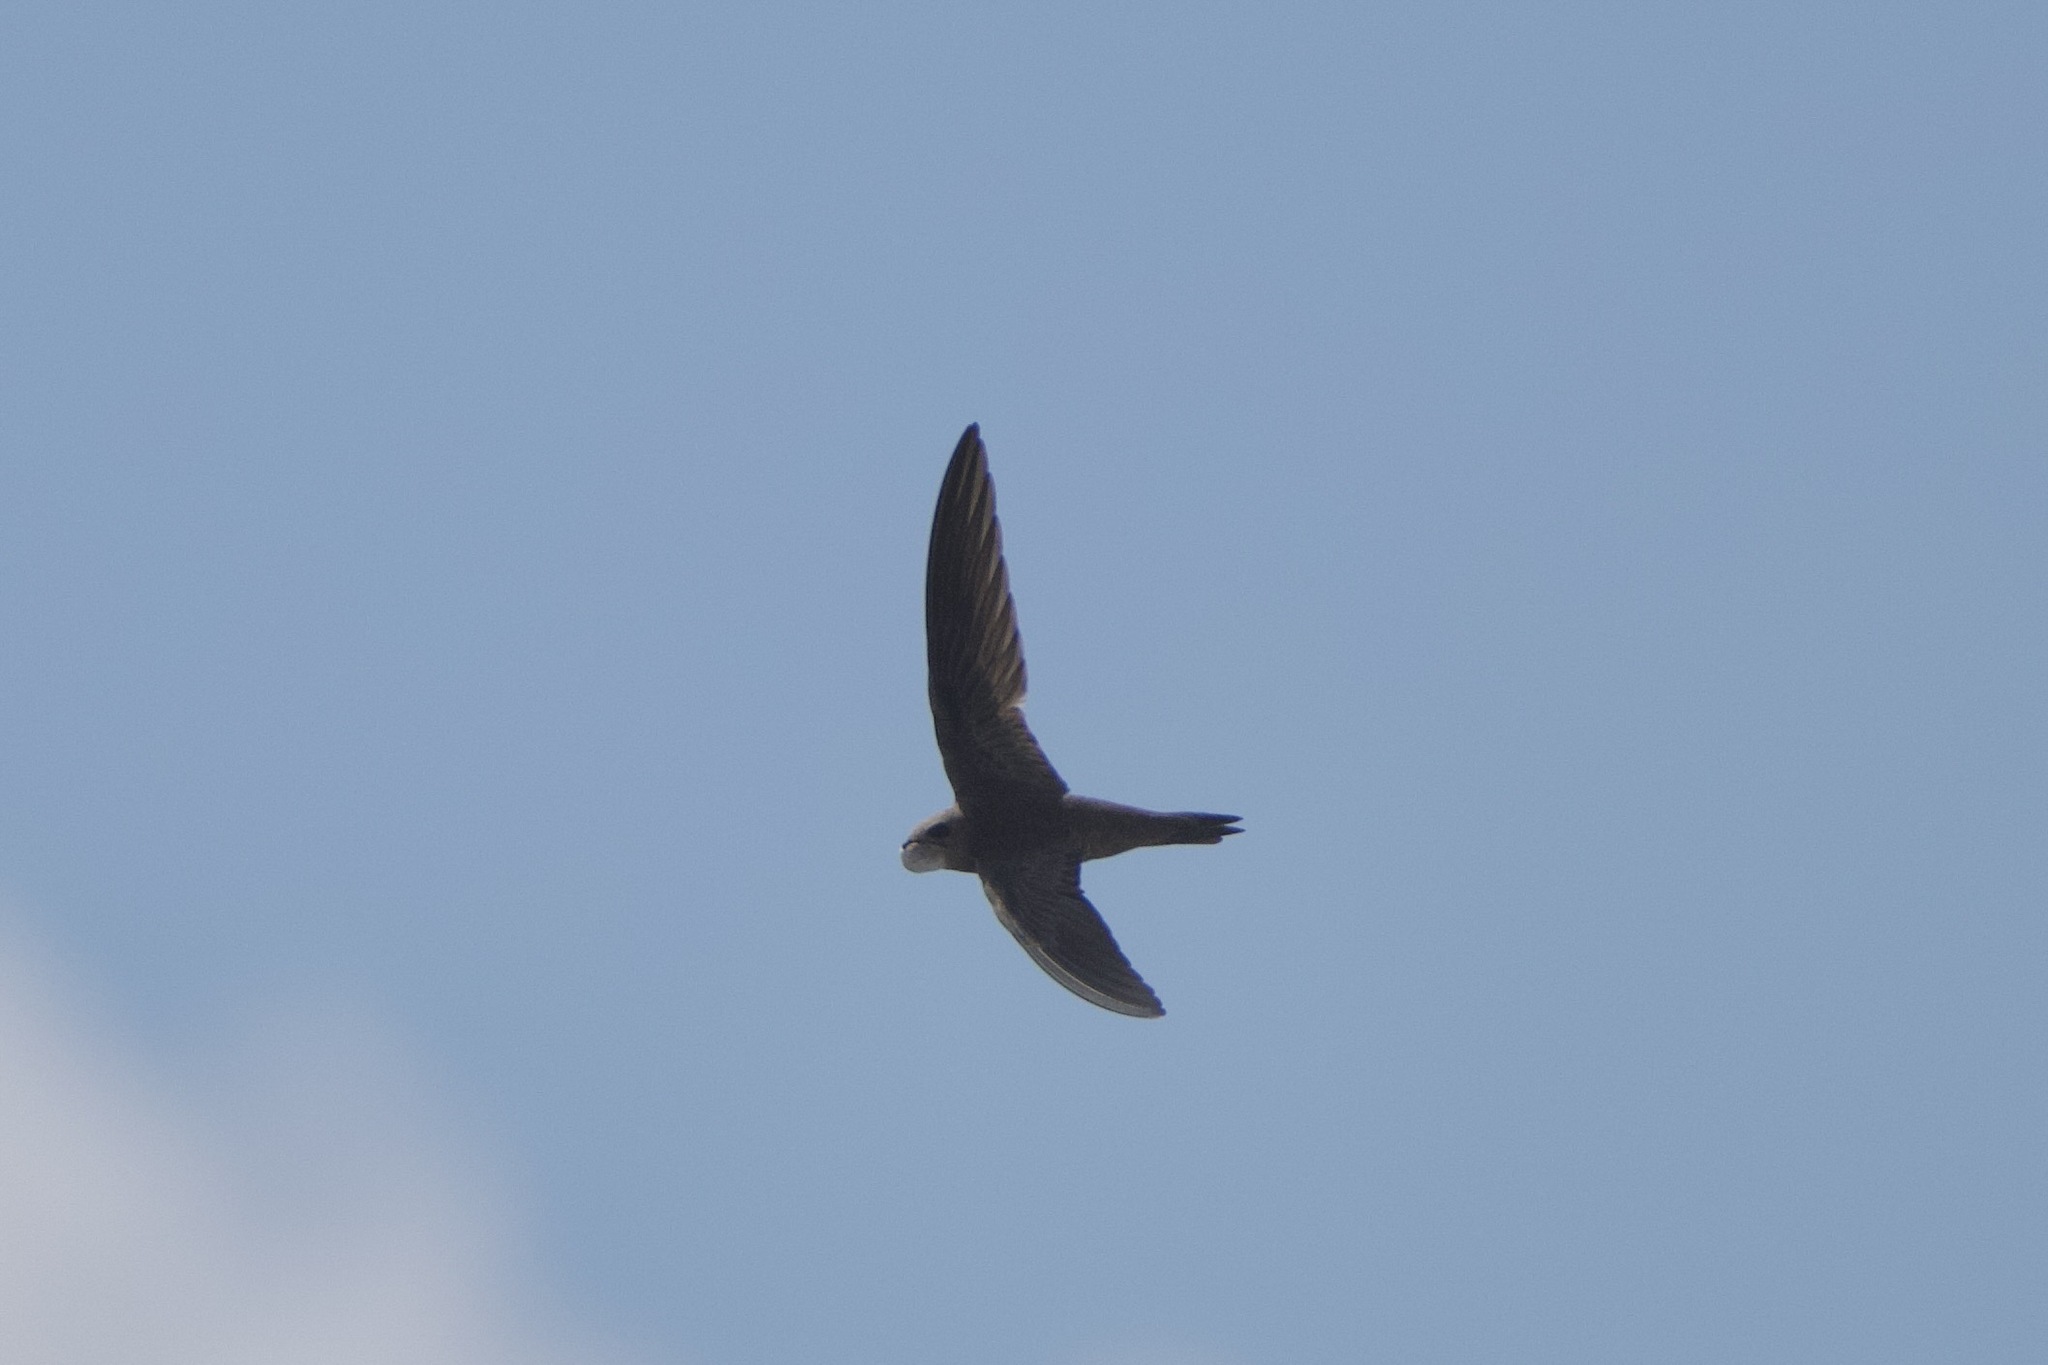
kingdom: Animalia
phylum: Chordata
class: Aves
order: Apodiformes
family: Apodidae
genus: Apus
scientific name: Apus pallidus
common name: Pallid swift
